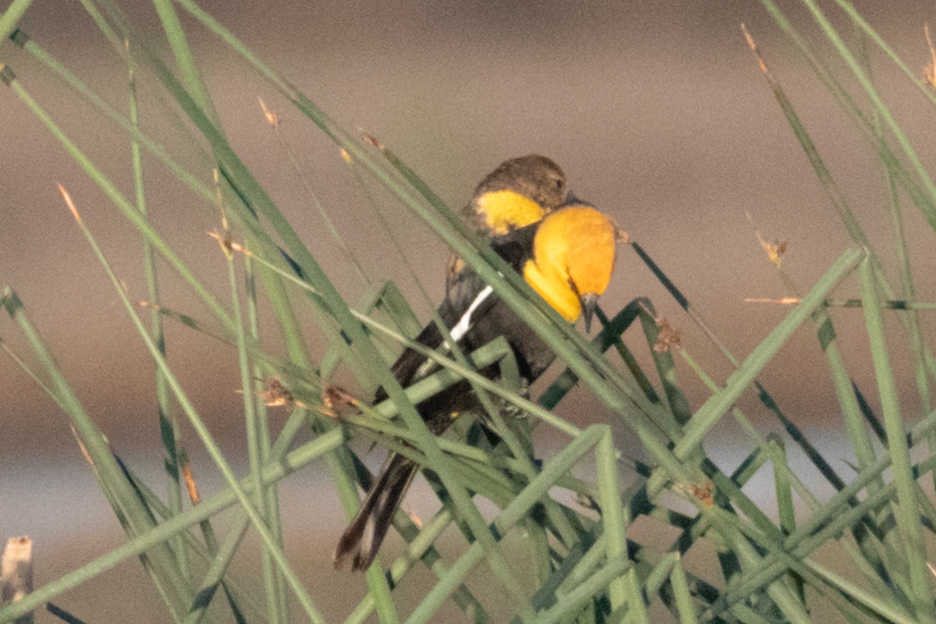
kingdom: Animalia
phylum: Chordata
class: Aves
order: Passeriformes
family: Icteridae
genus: Xanthocephalus
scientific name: Xanthocephalus xanthocephalus
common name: Yellow-headed blackbird
